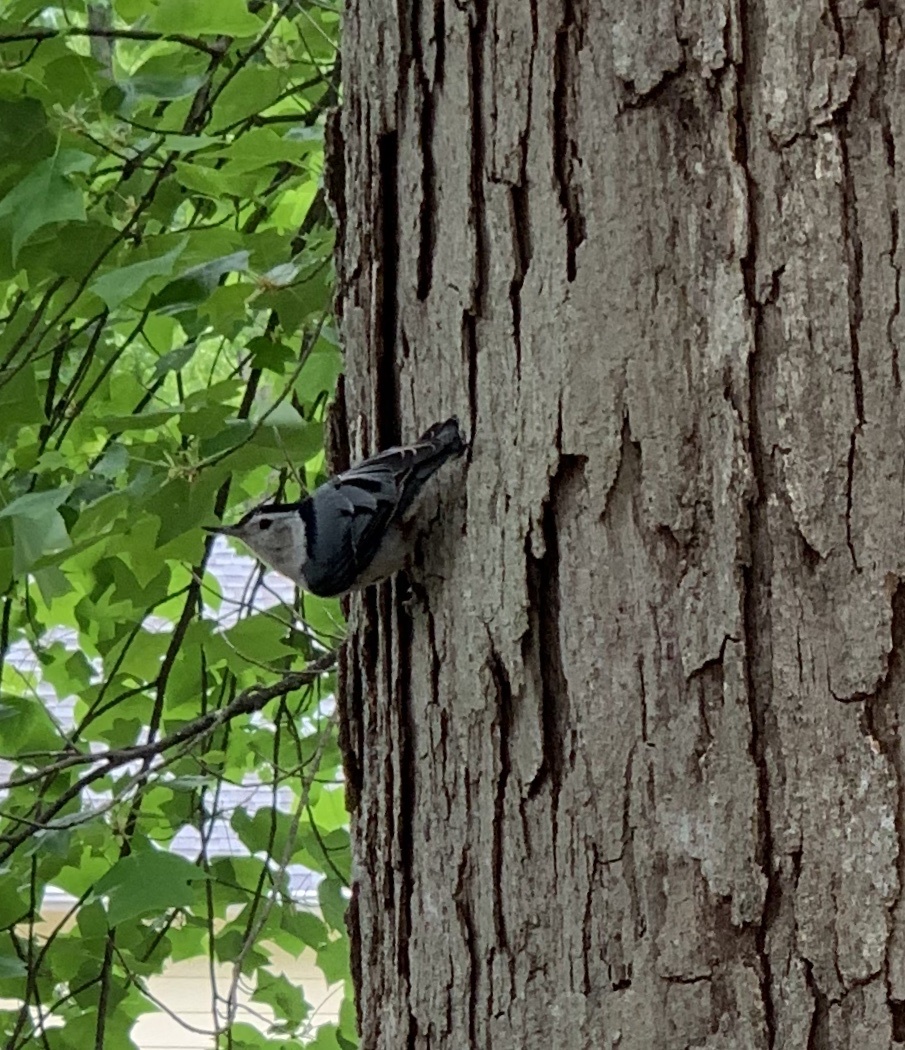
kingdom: Animalia
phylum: Chordata
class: Aves
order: Passeriformes
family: Sittidae
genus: Sitta
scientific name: Sitta carolinensis
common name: White-breasted nuthatch
